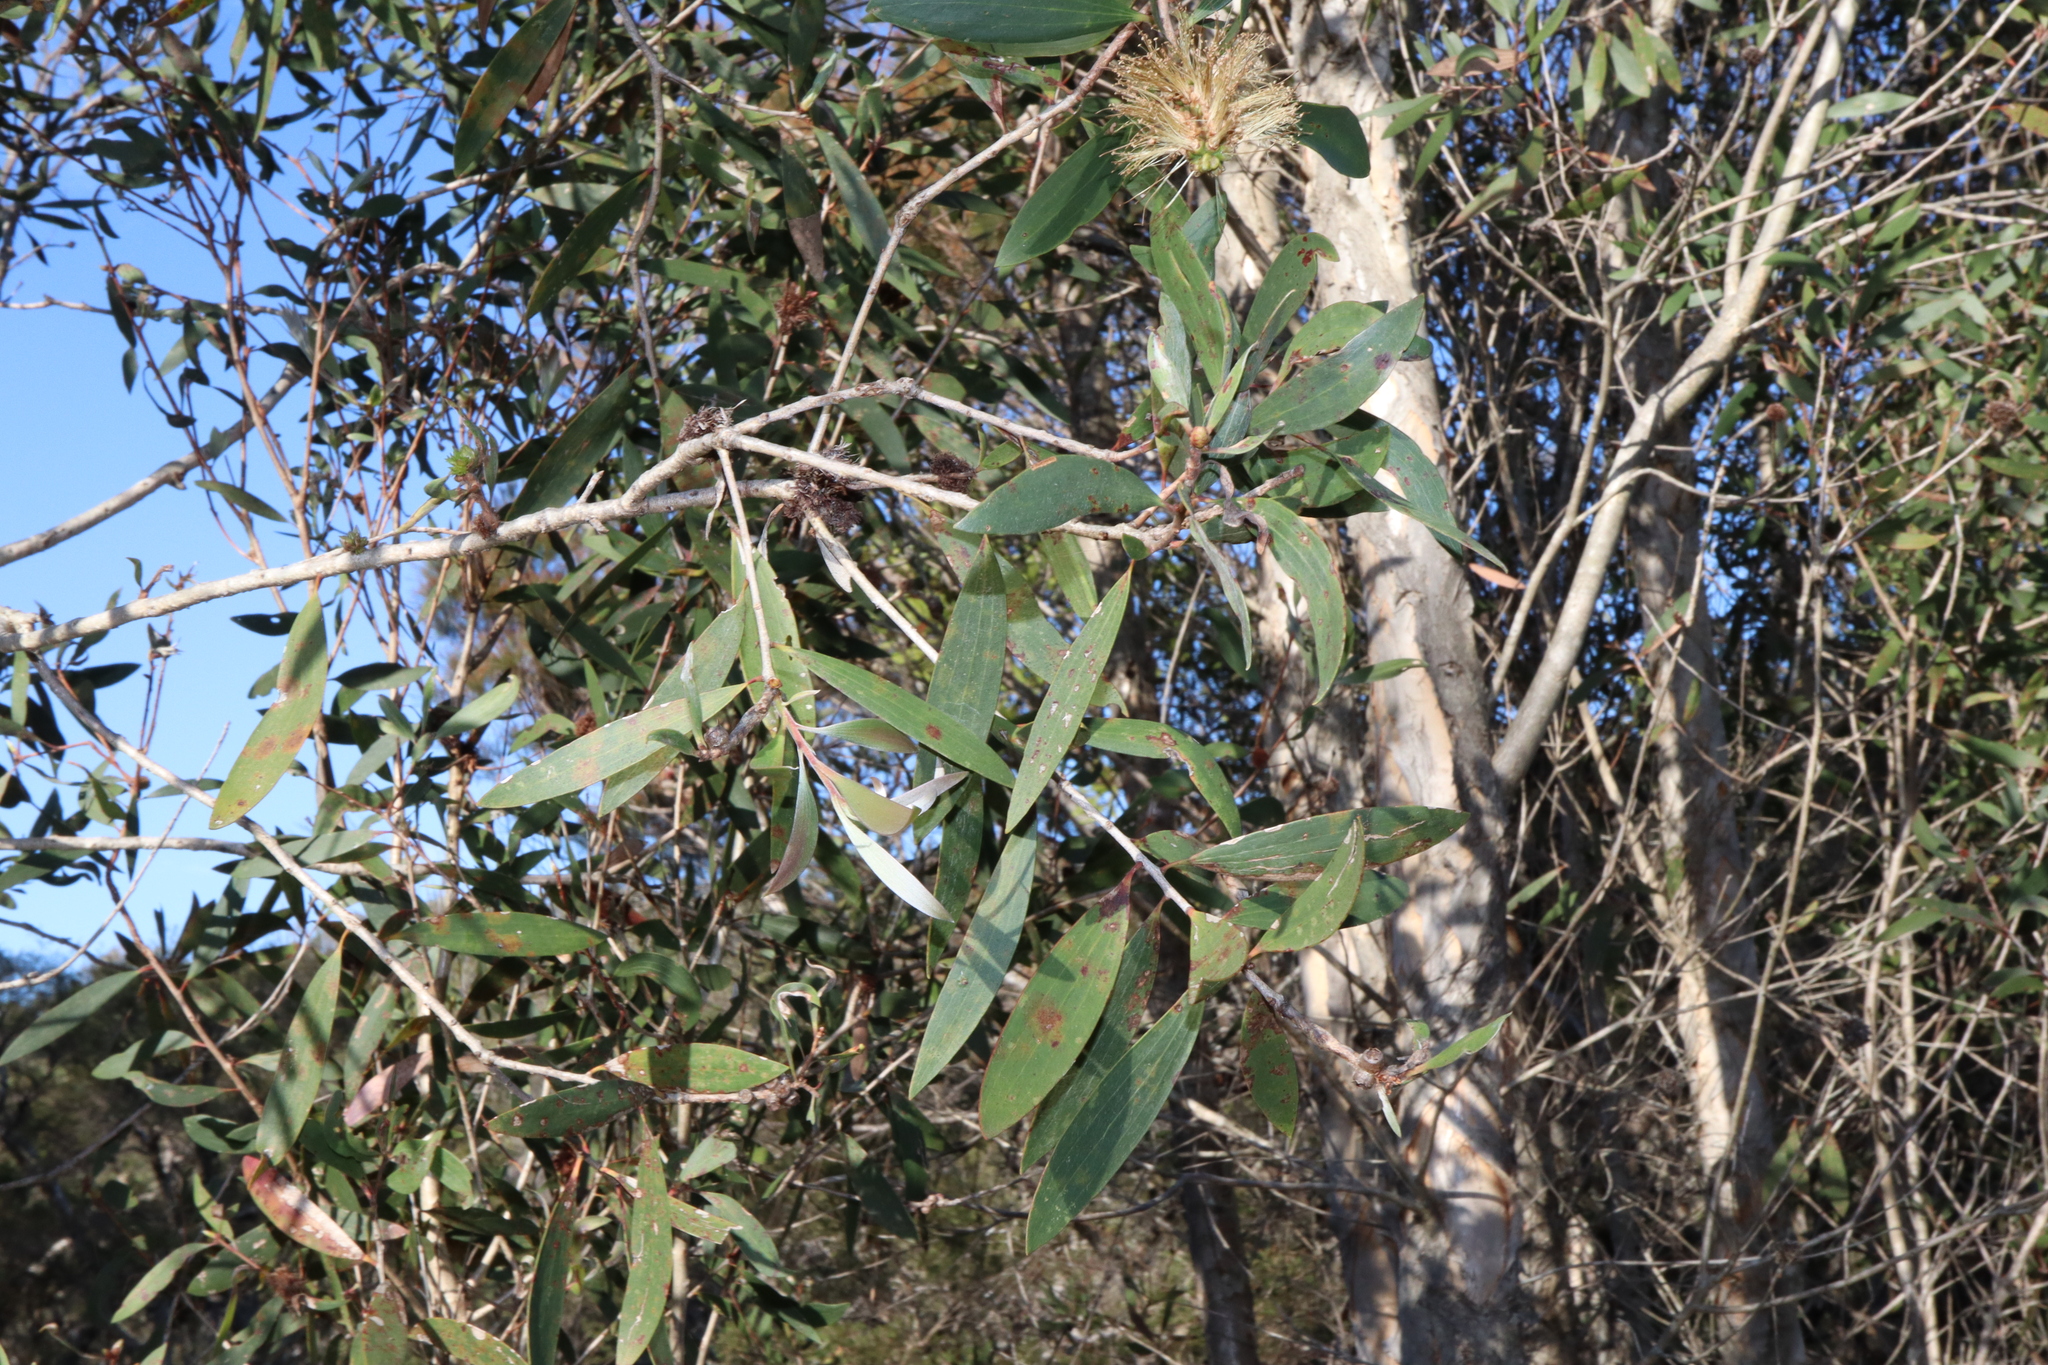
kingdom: Plantae
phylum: Tracheophyta
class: Magnoliopsida
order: Myrtales
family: Myrtaceae
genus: Melaleuca
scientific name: Melaleuca quinquenervia
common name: Punktree
